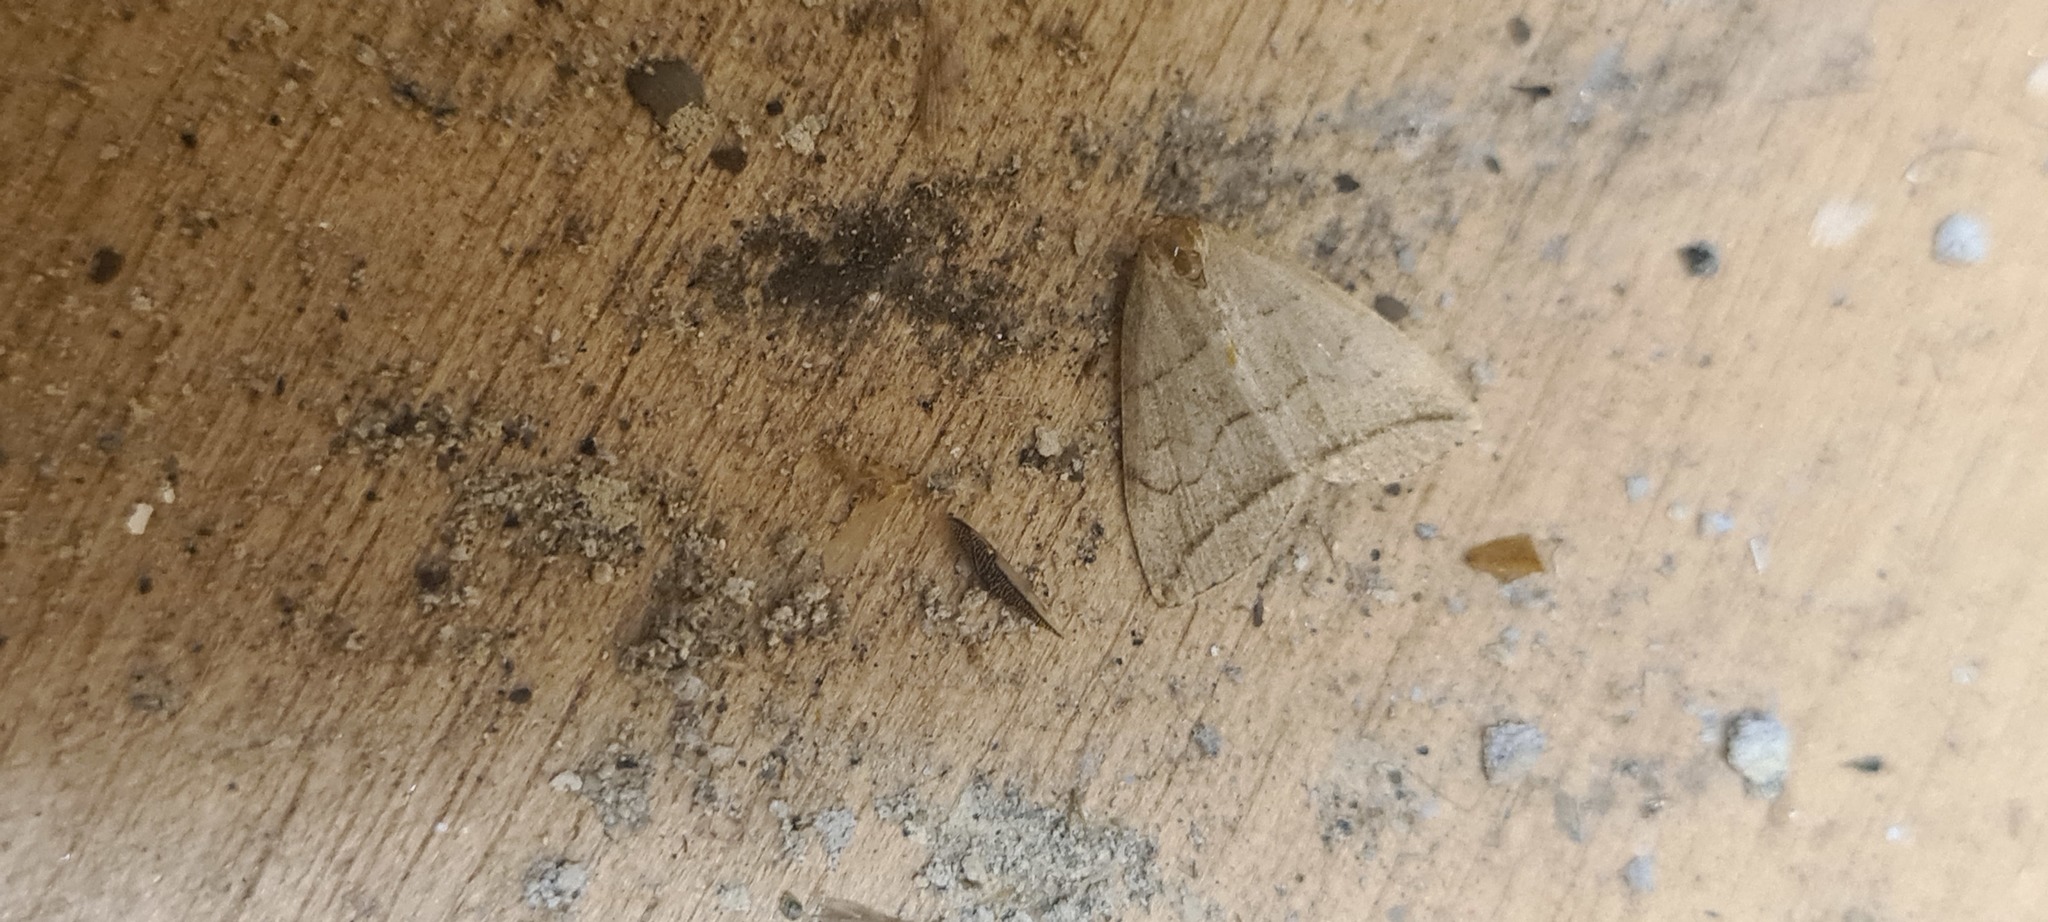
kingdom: Animalia
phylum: Arthropoda
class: Insecta
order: Lepidoptera
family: Erebidae
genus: Herminia
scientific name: Herminia grisealis
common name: Small fan-foot
